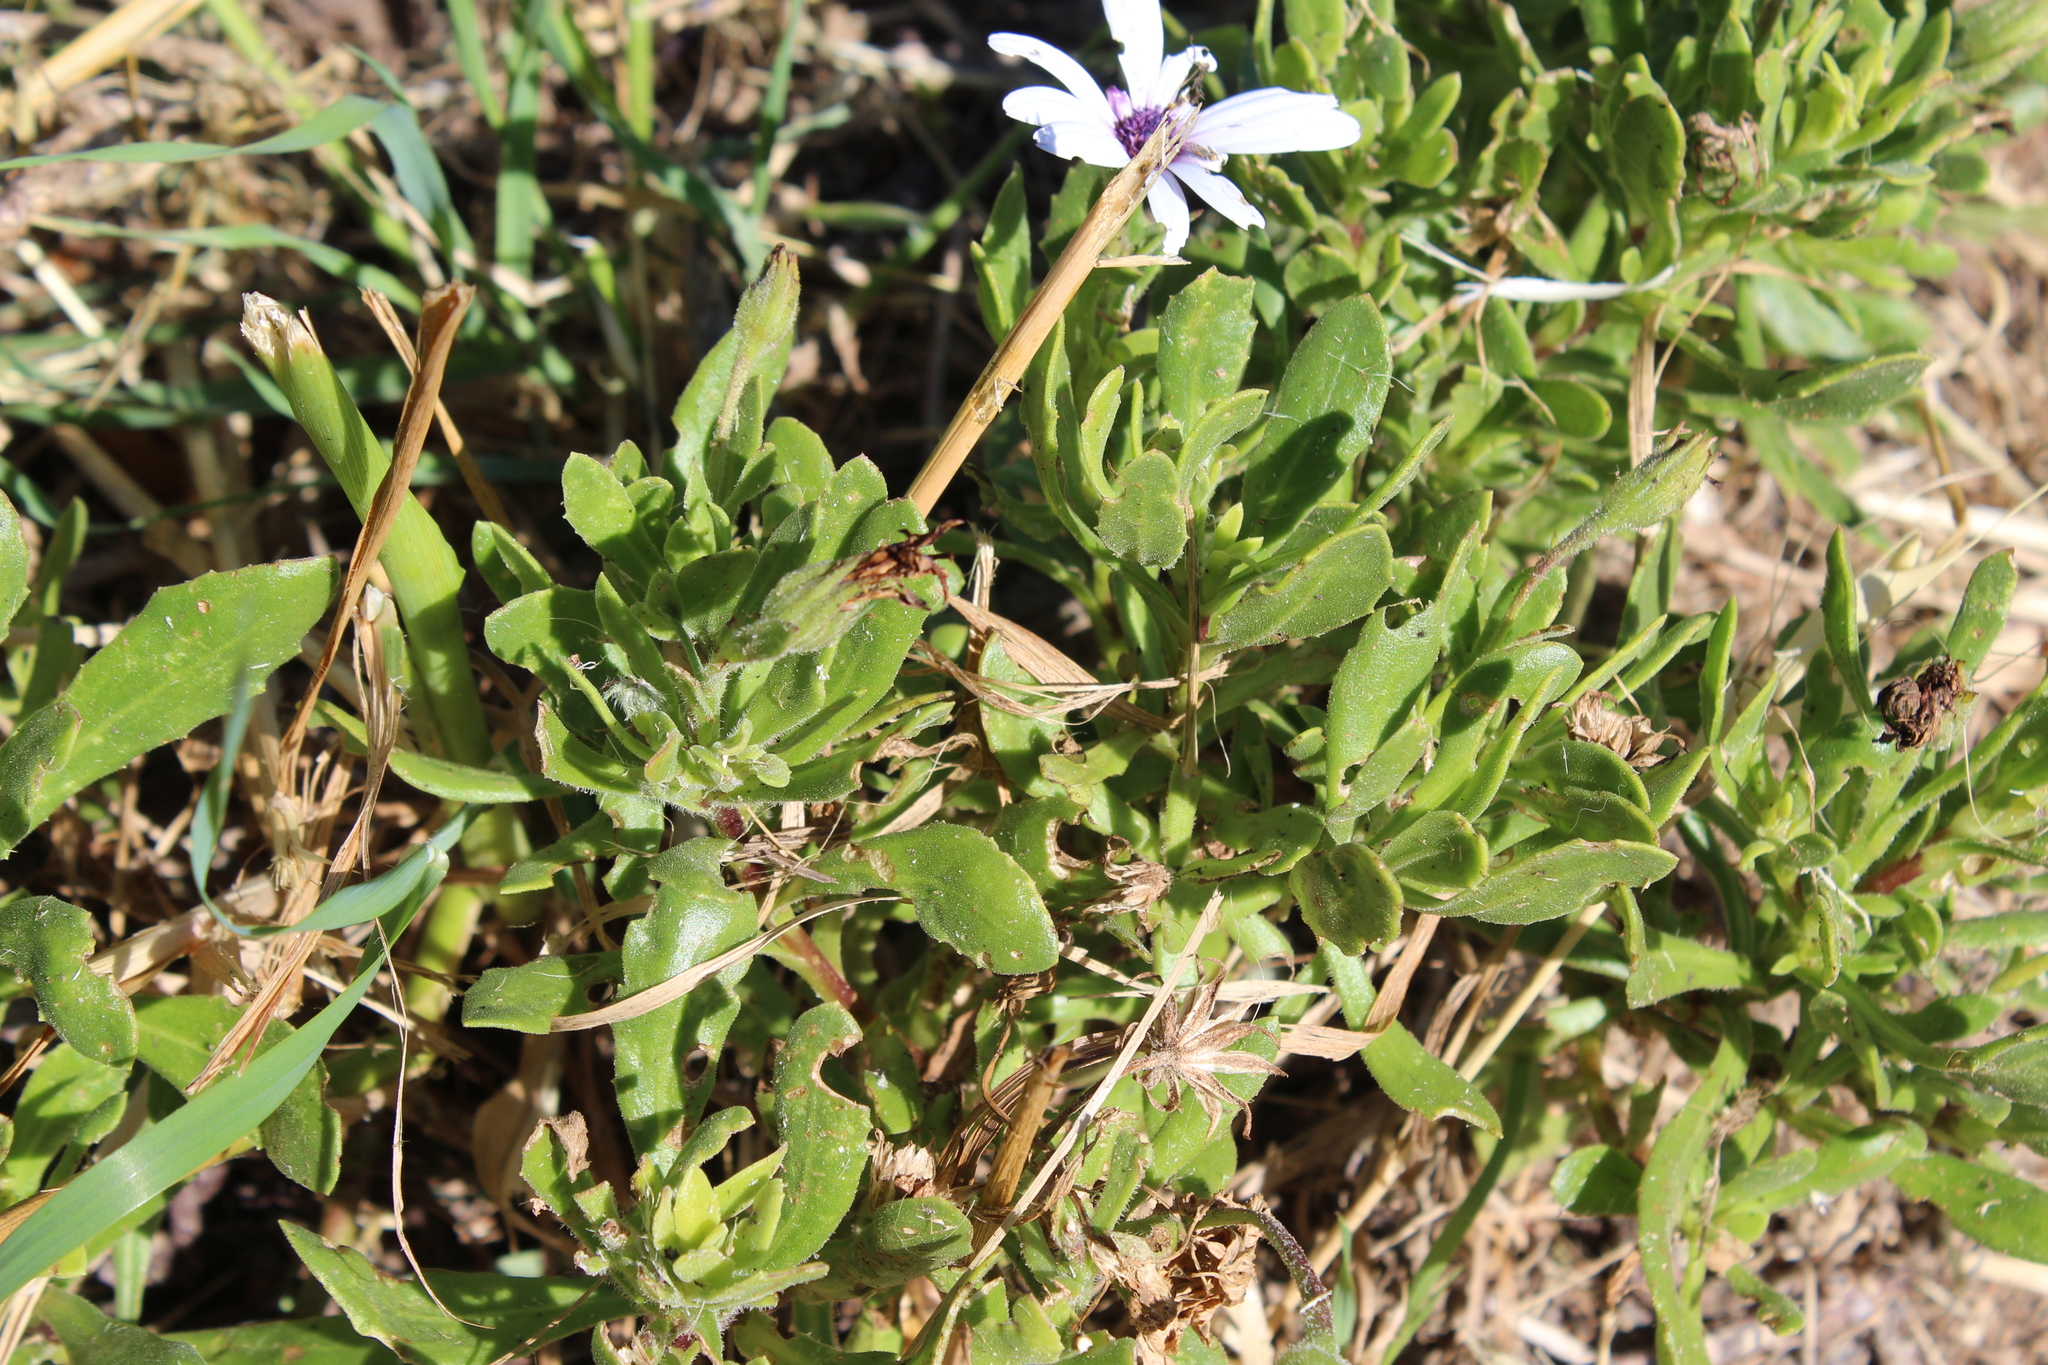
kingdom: Plantae
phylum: Tracheophyta
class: Magnoliopsida
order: Asterales
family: Asteraceae
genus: Dimorphotheca
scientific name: Dimorphotheca fruticosa
